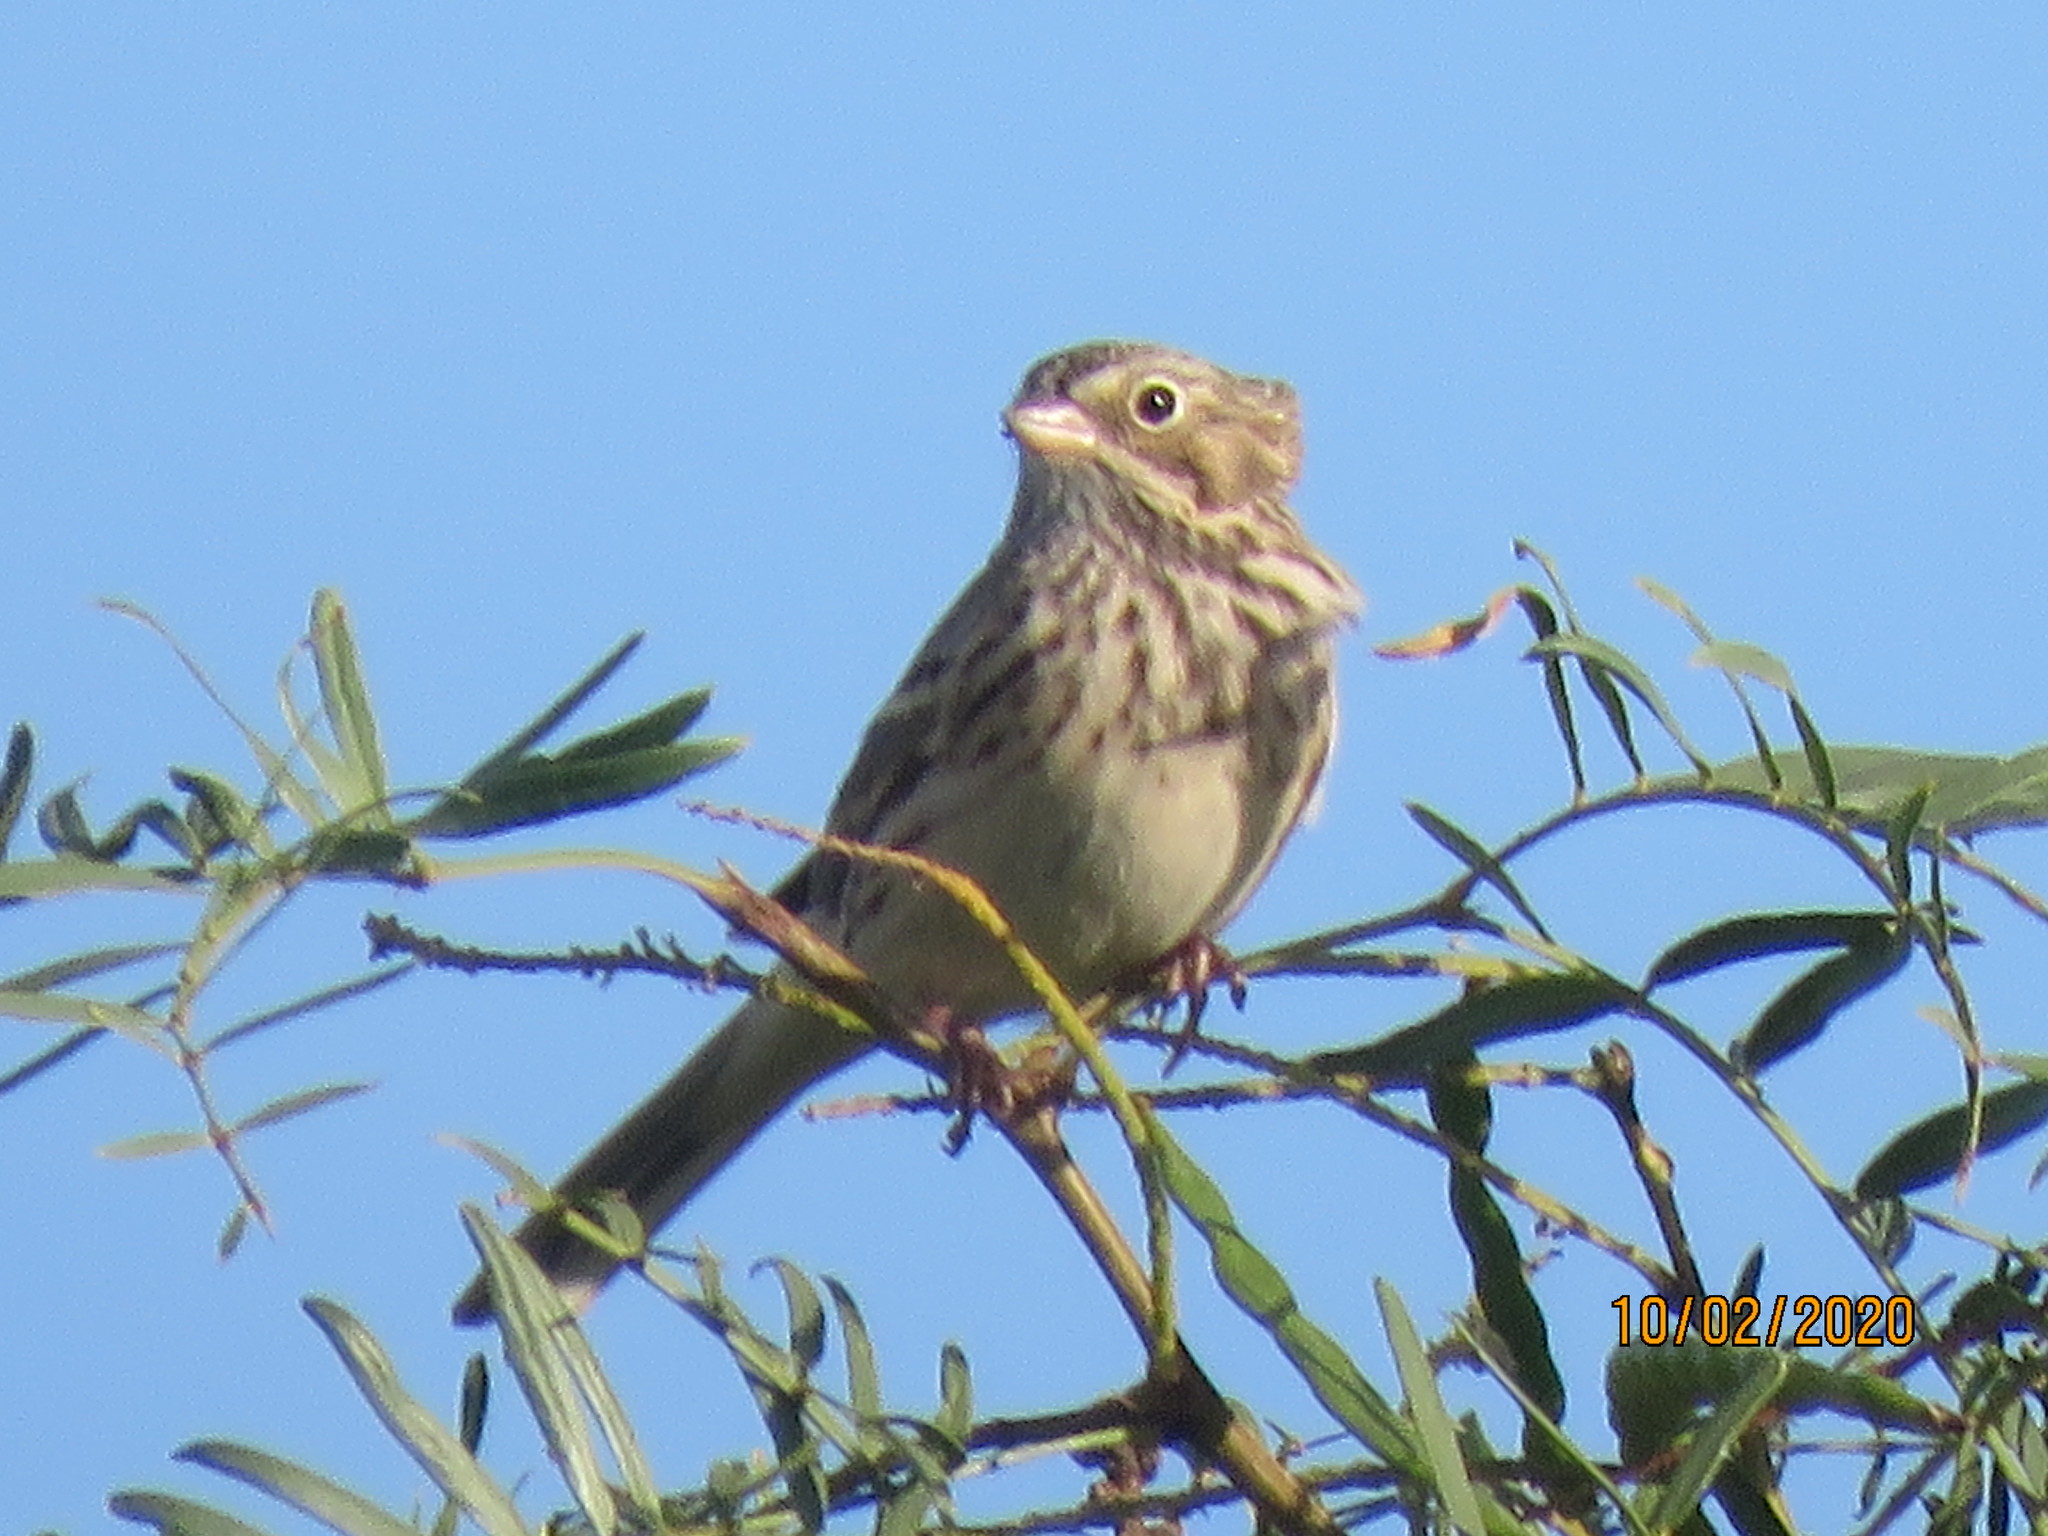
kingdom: Animalia
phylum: Chordata
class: Aves
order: Passeriformes
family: Passerellidae
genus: Pooecetes
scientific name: Pooecetes gramineus
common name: Vesper sparrow
